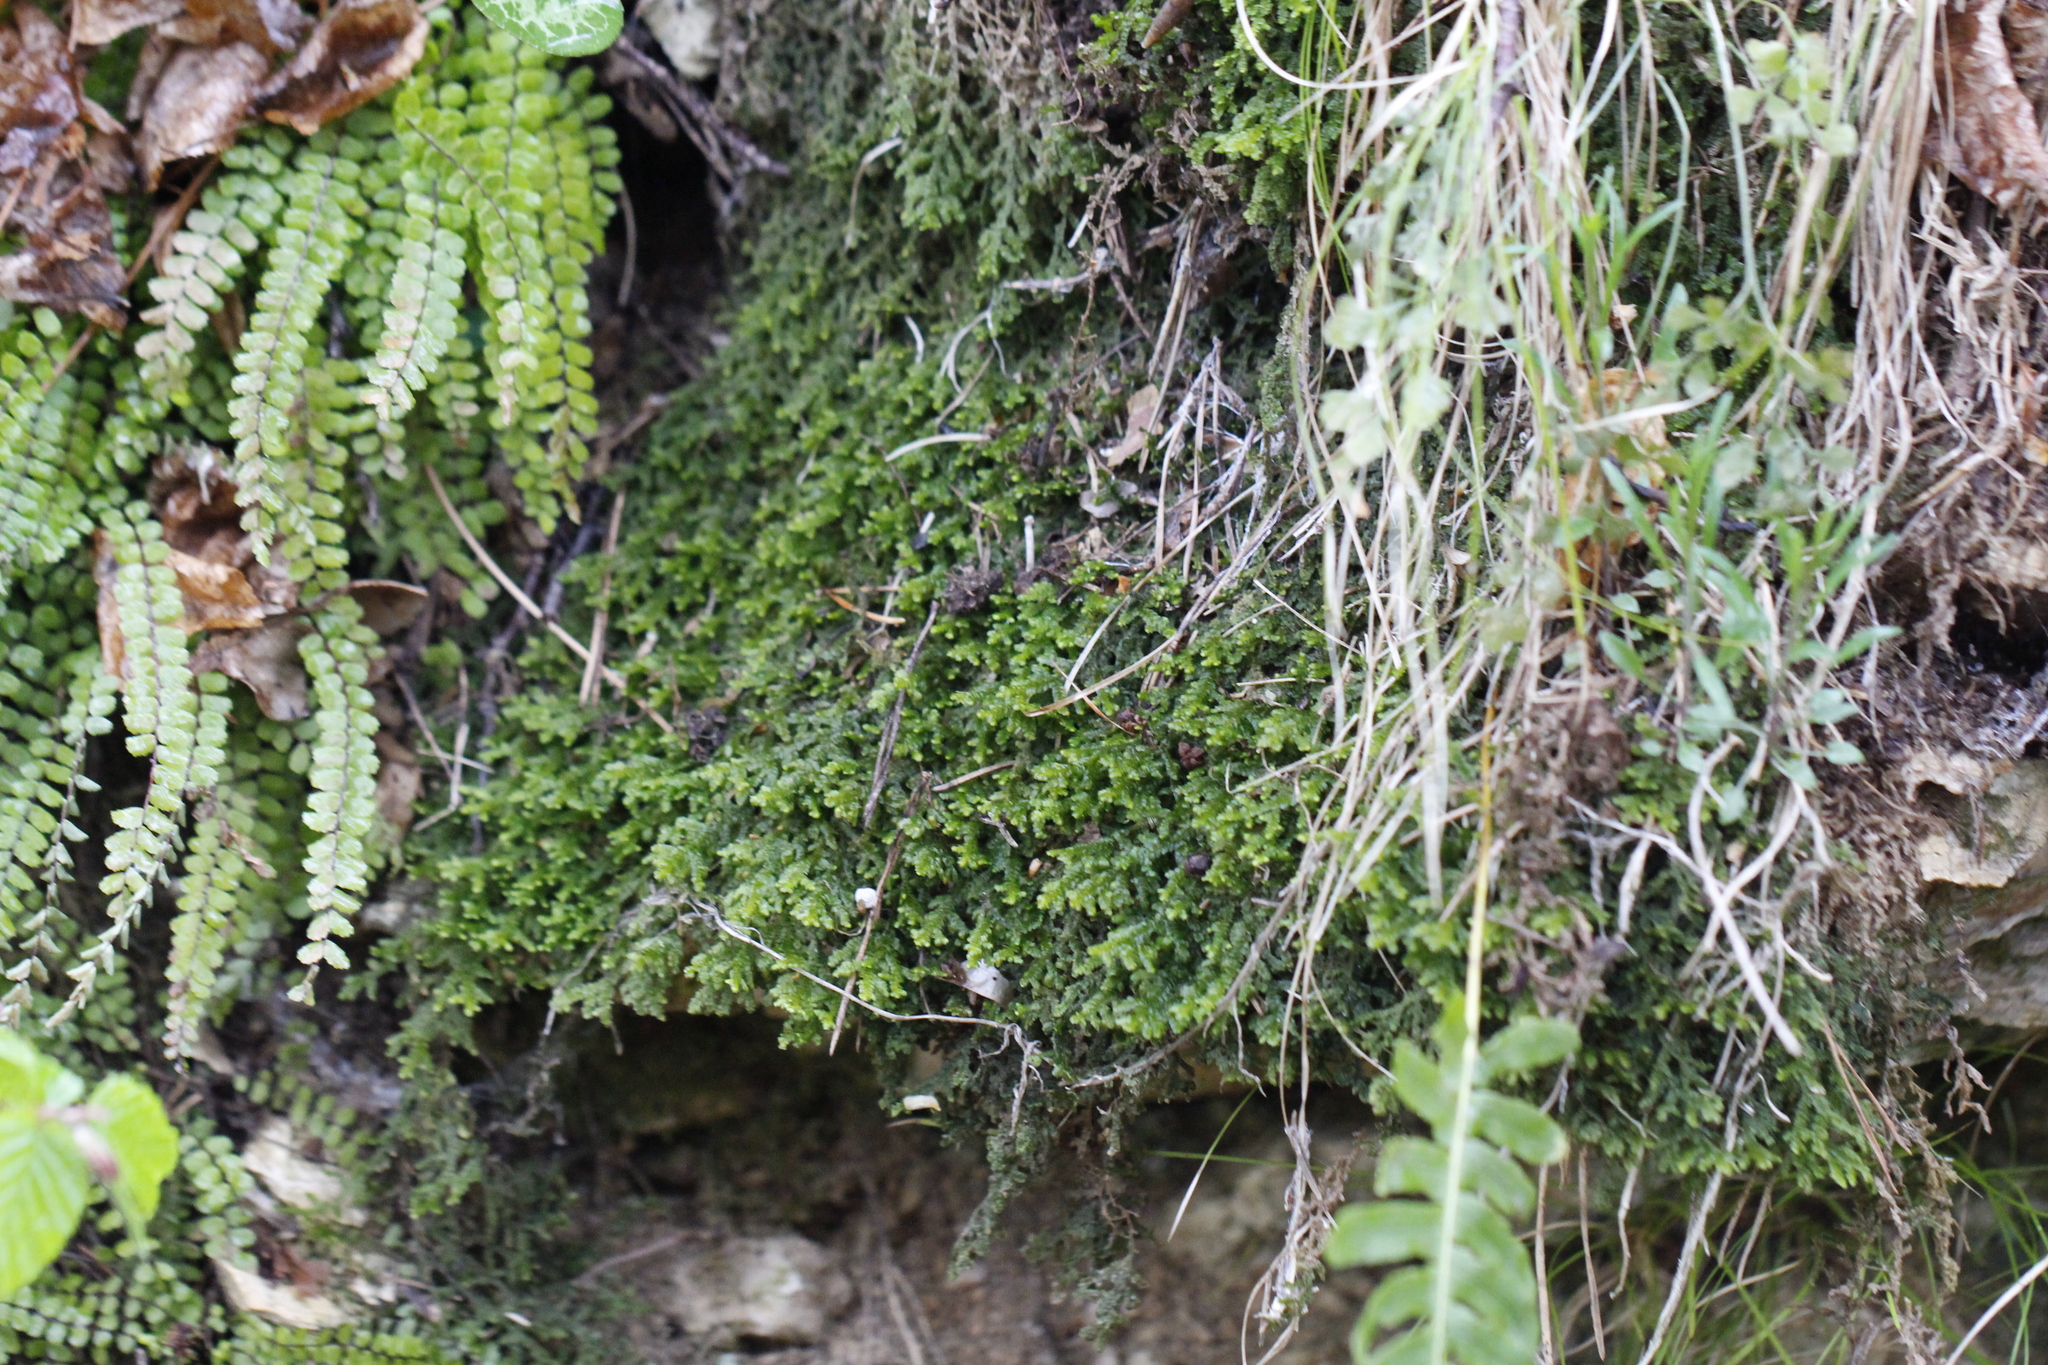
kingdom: Plantae
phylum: Marchantiophyta
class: Jungermanniopsida
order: Porellales
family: Porellaceae
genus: Porella
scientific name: Porella platyphylla
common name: Wall scalewort
